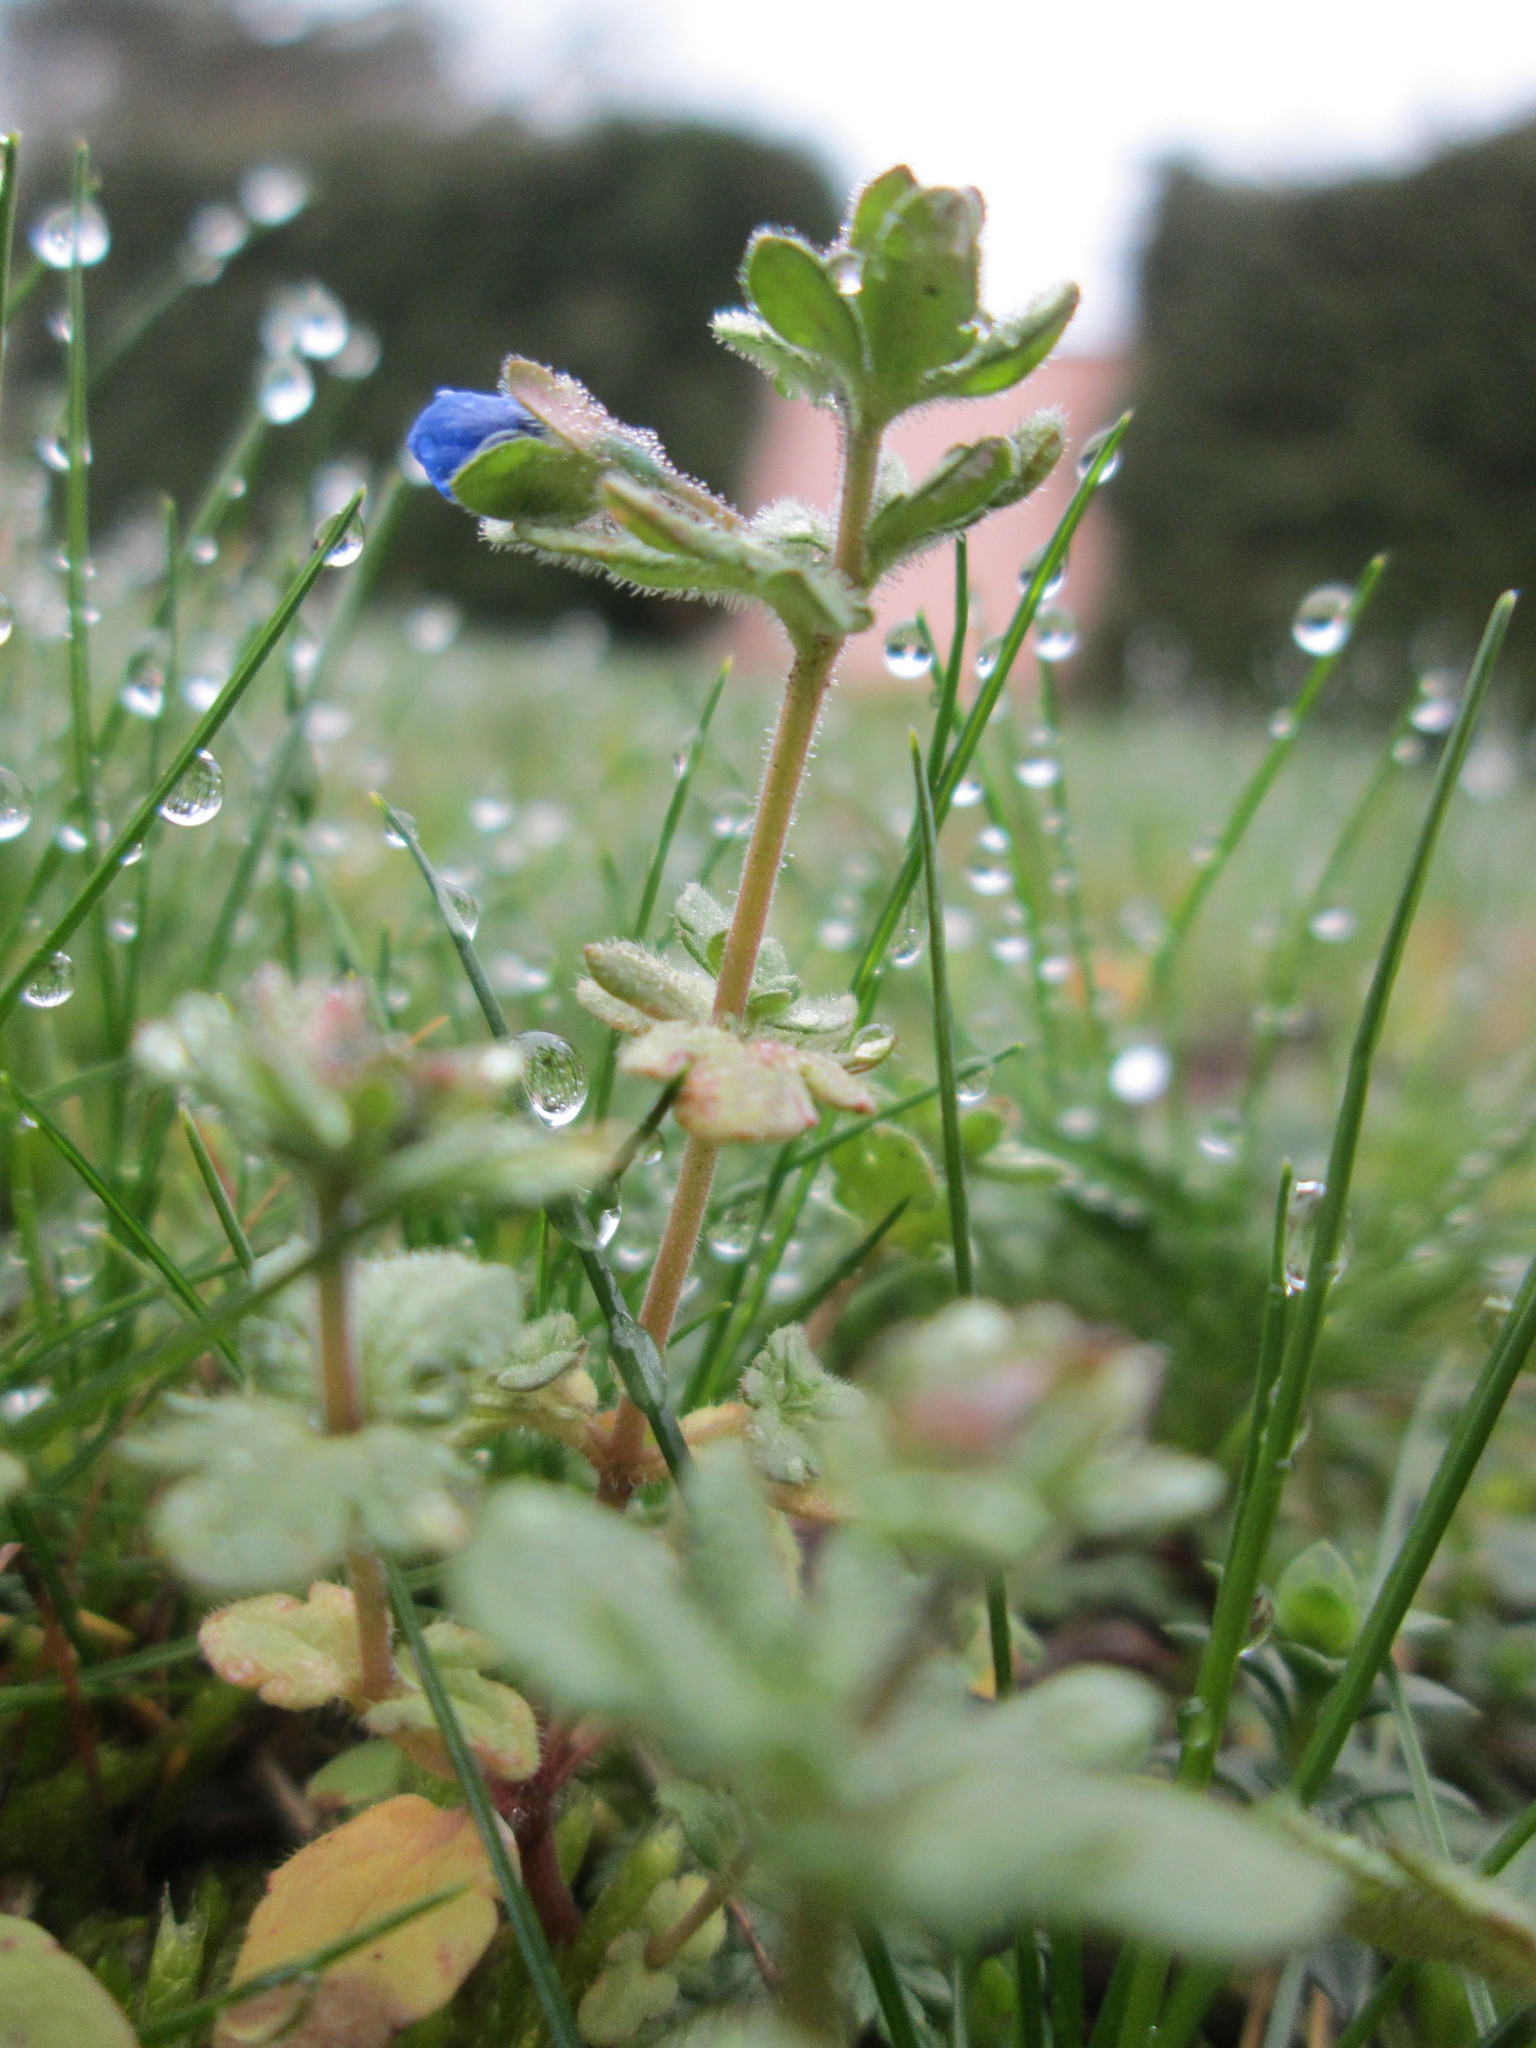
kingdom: Plantae
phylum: Tracheophyta
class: Magnoliopsida
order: Lamiales
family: Plantaginaceae
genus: Veronica
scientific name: Veronica triphyllos
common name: Fingered speedwell
